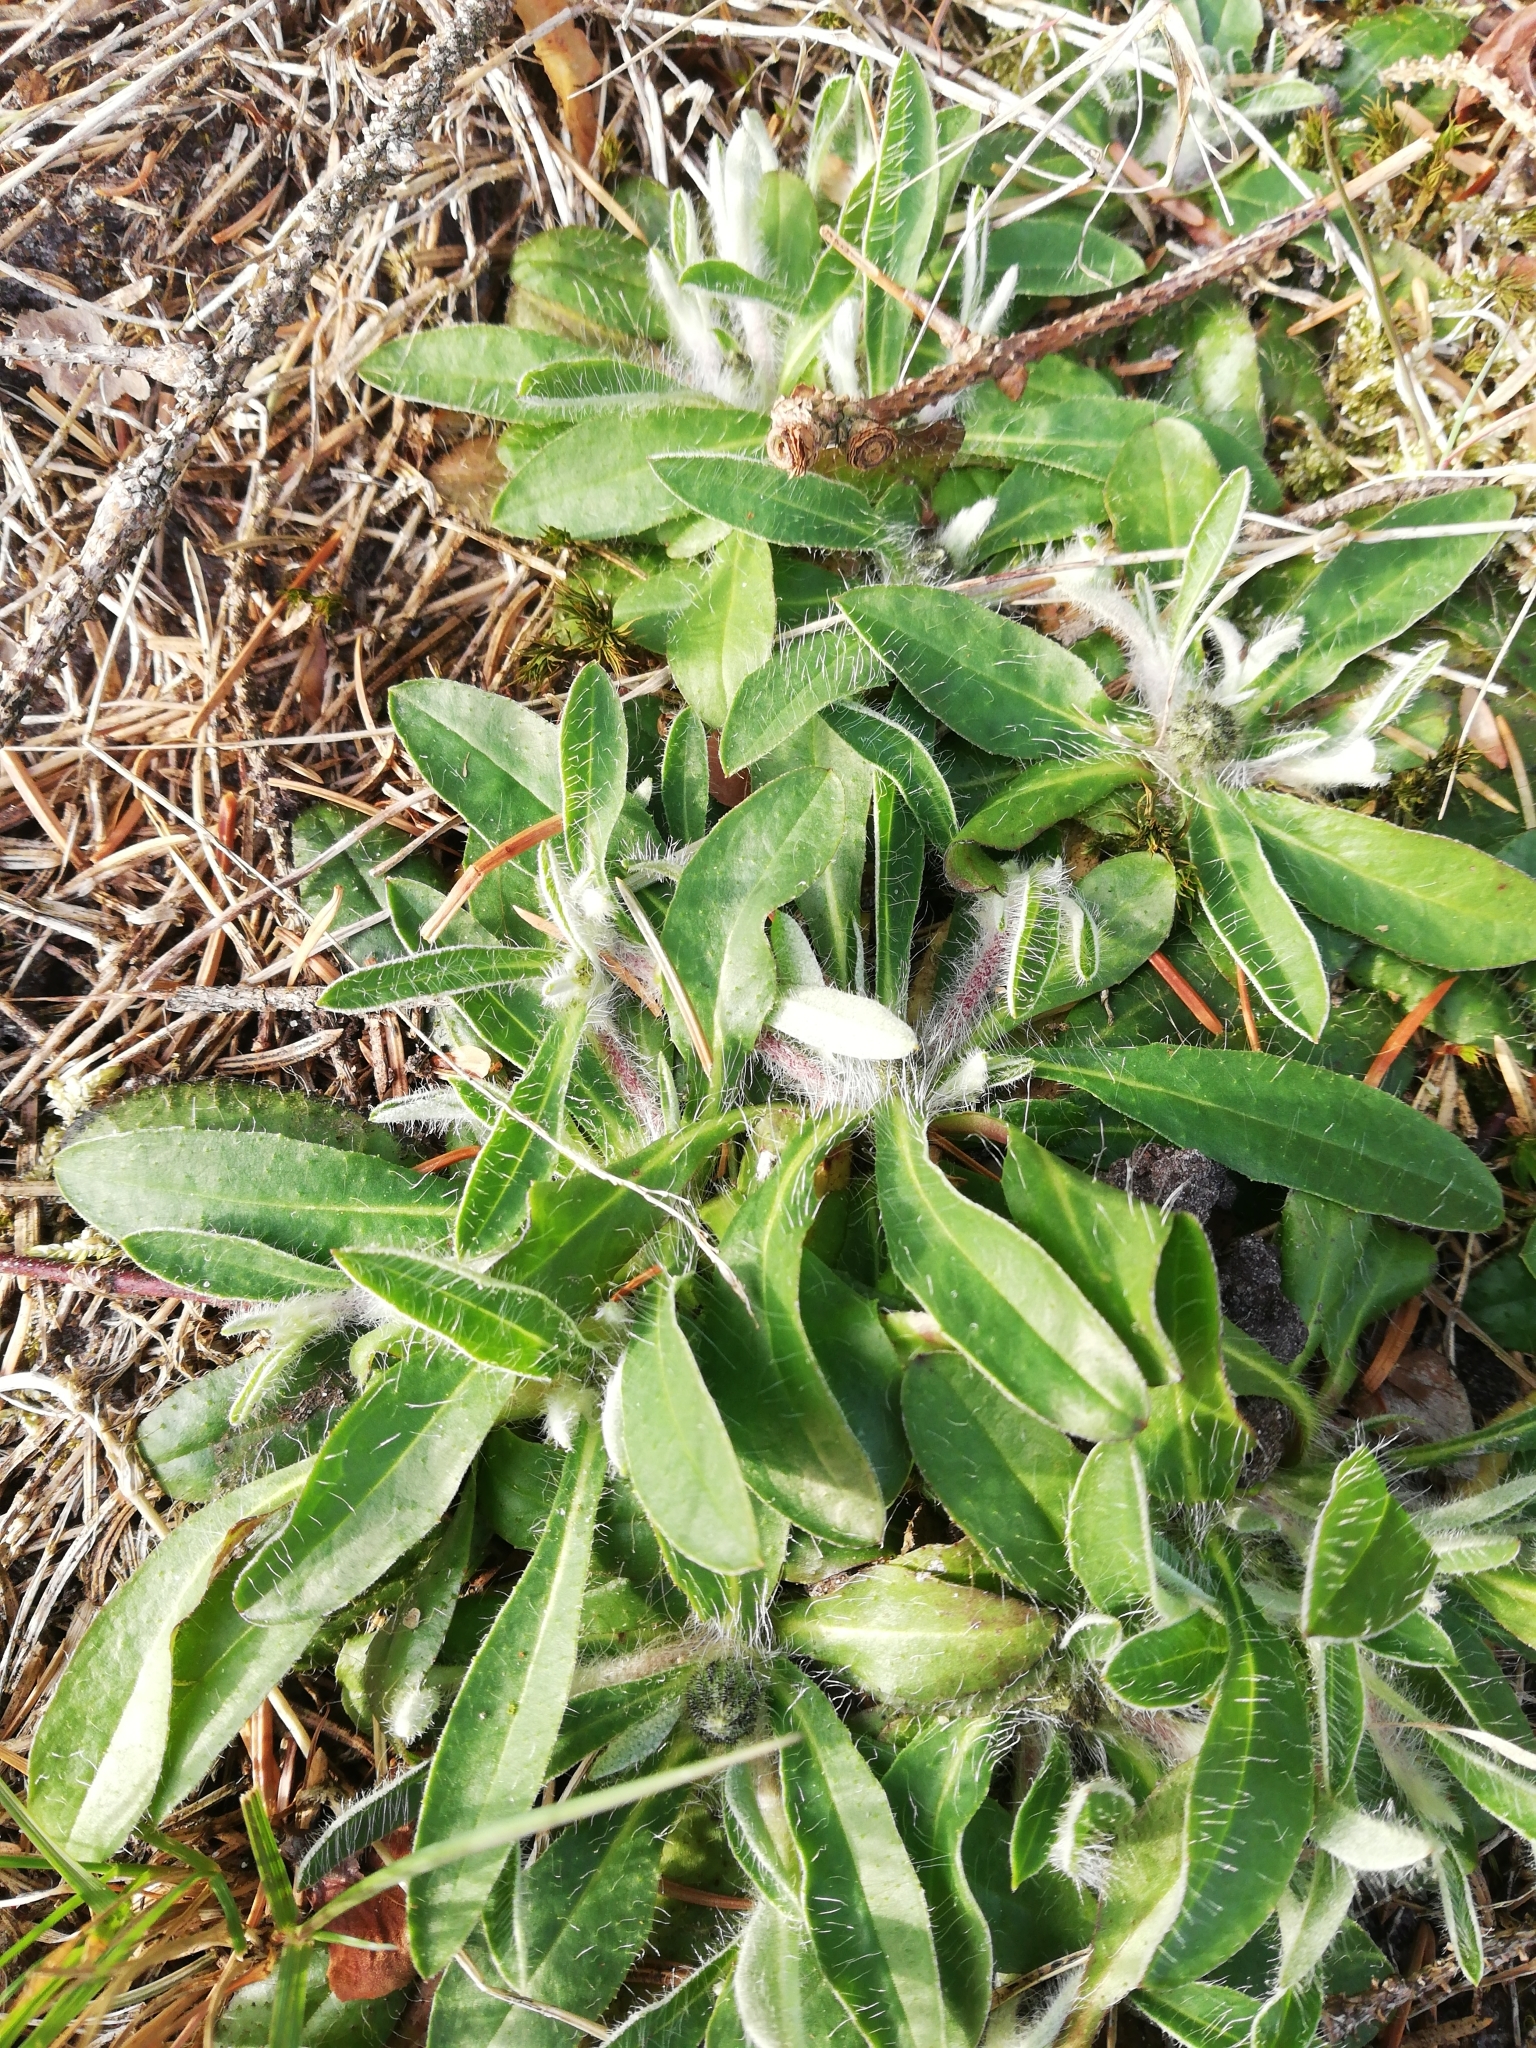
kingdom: Plantae
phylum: Tracheophyta
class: Magnoliopsida
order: Asterales
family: Asteraceae
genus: Pilosella
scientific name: Pilosella officinarum
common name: Mouse-ear hawkweed
